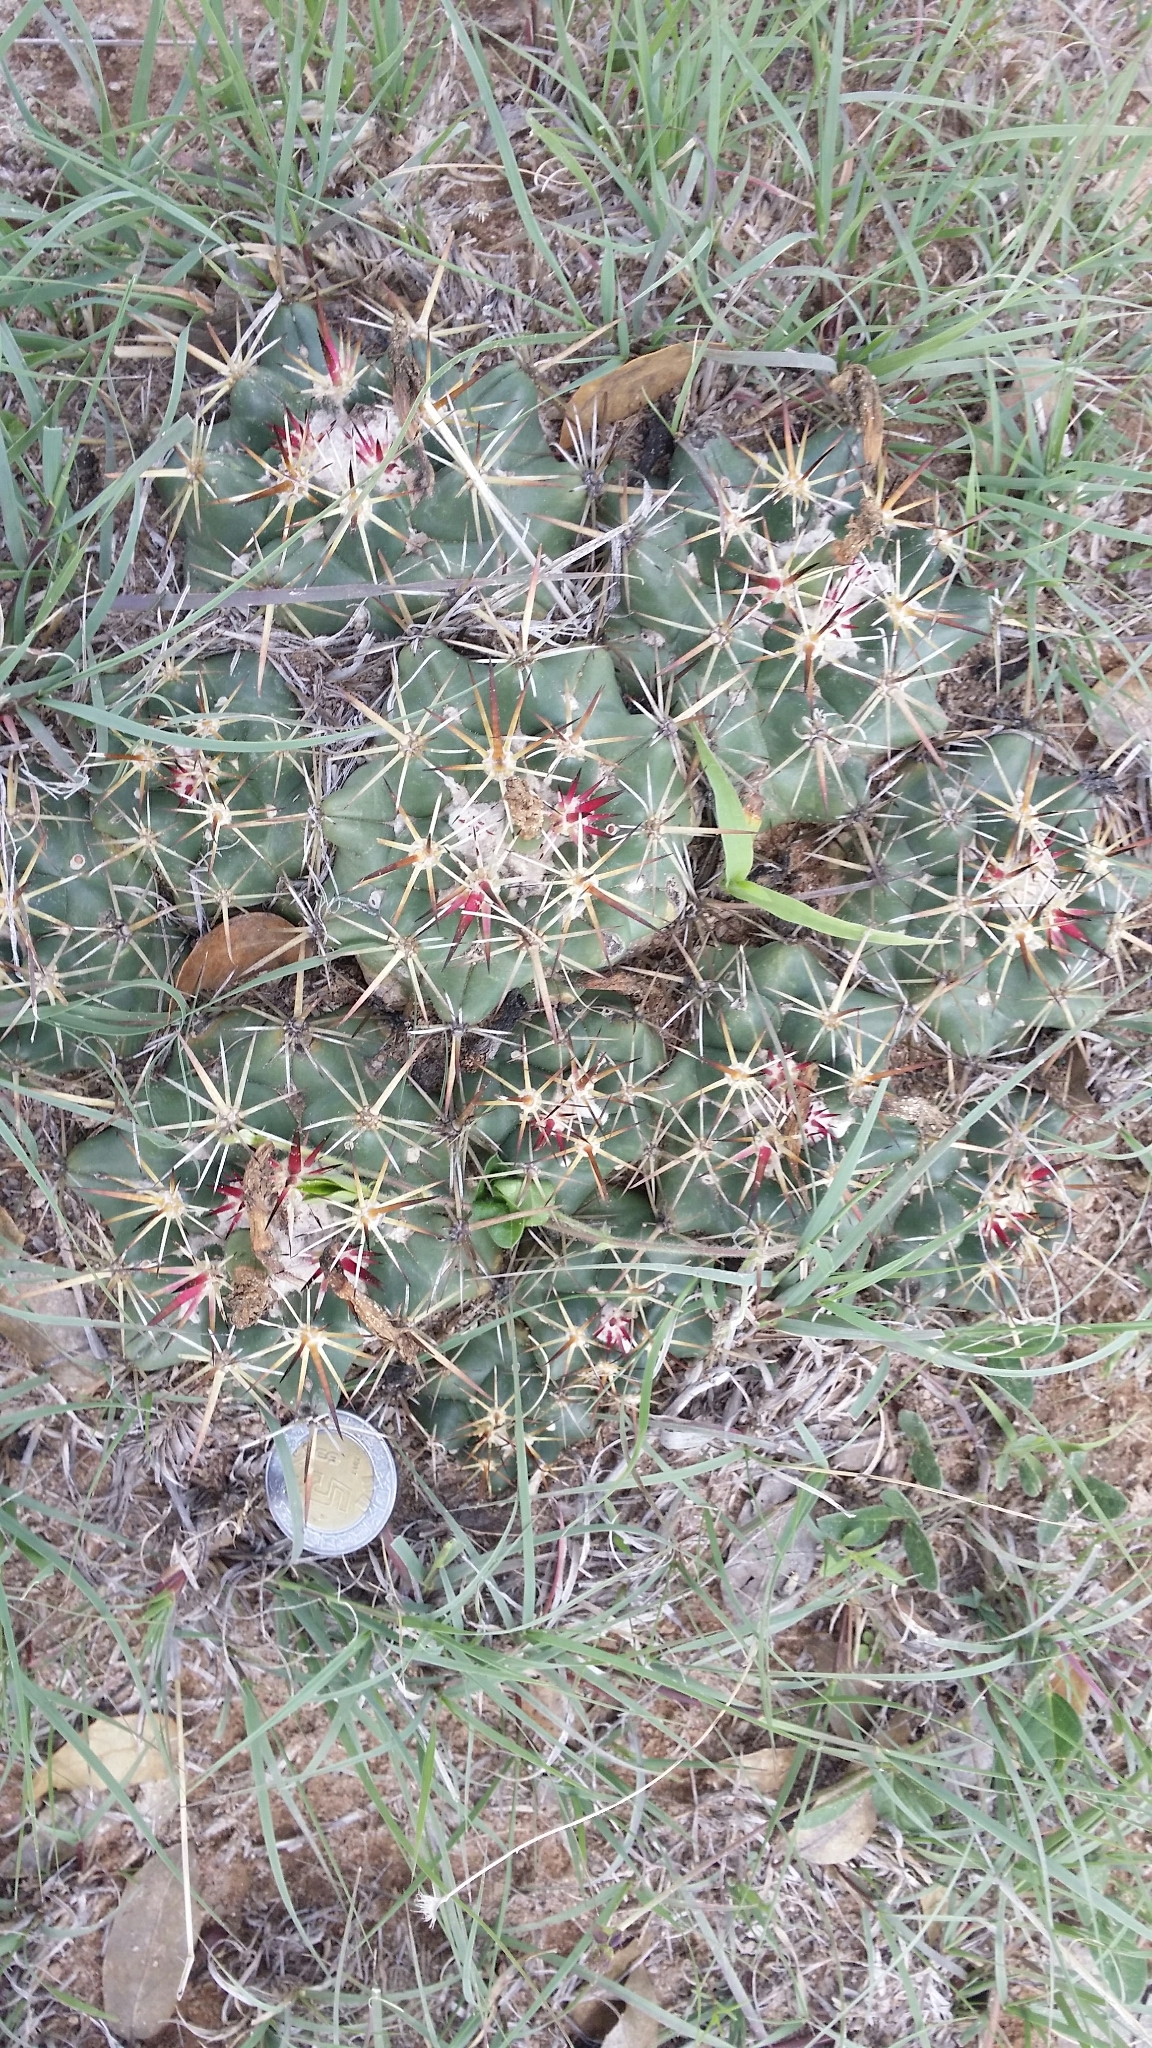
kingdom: Plantae
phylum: Tracheophyta
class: Magnoliopsida
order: Caryophyllales
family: Cactaceae
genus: Coryphantha
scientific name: Coryphantha ottonis
